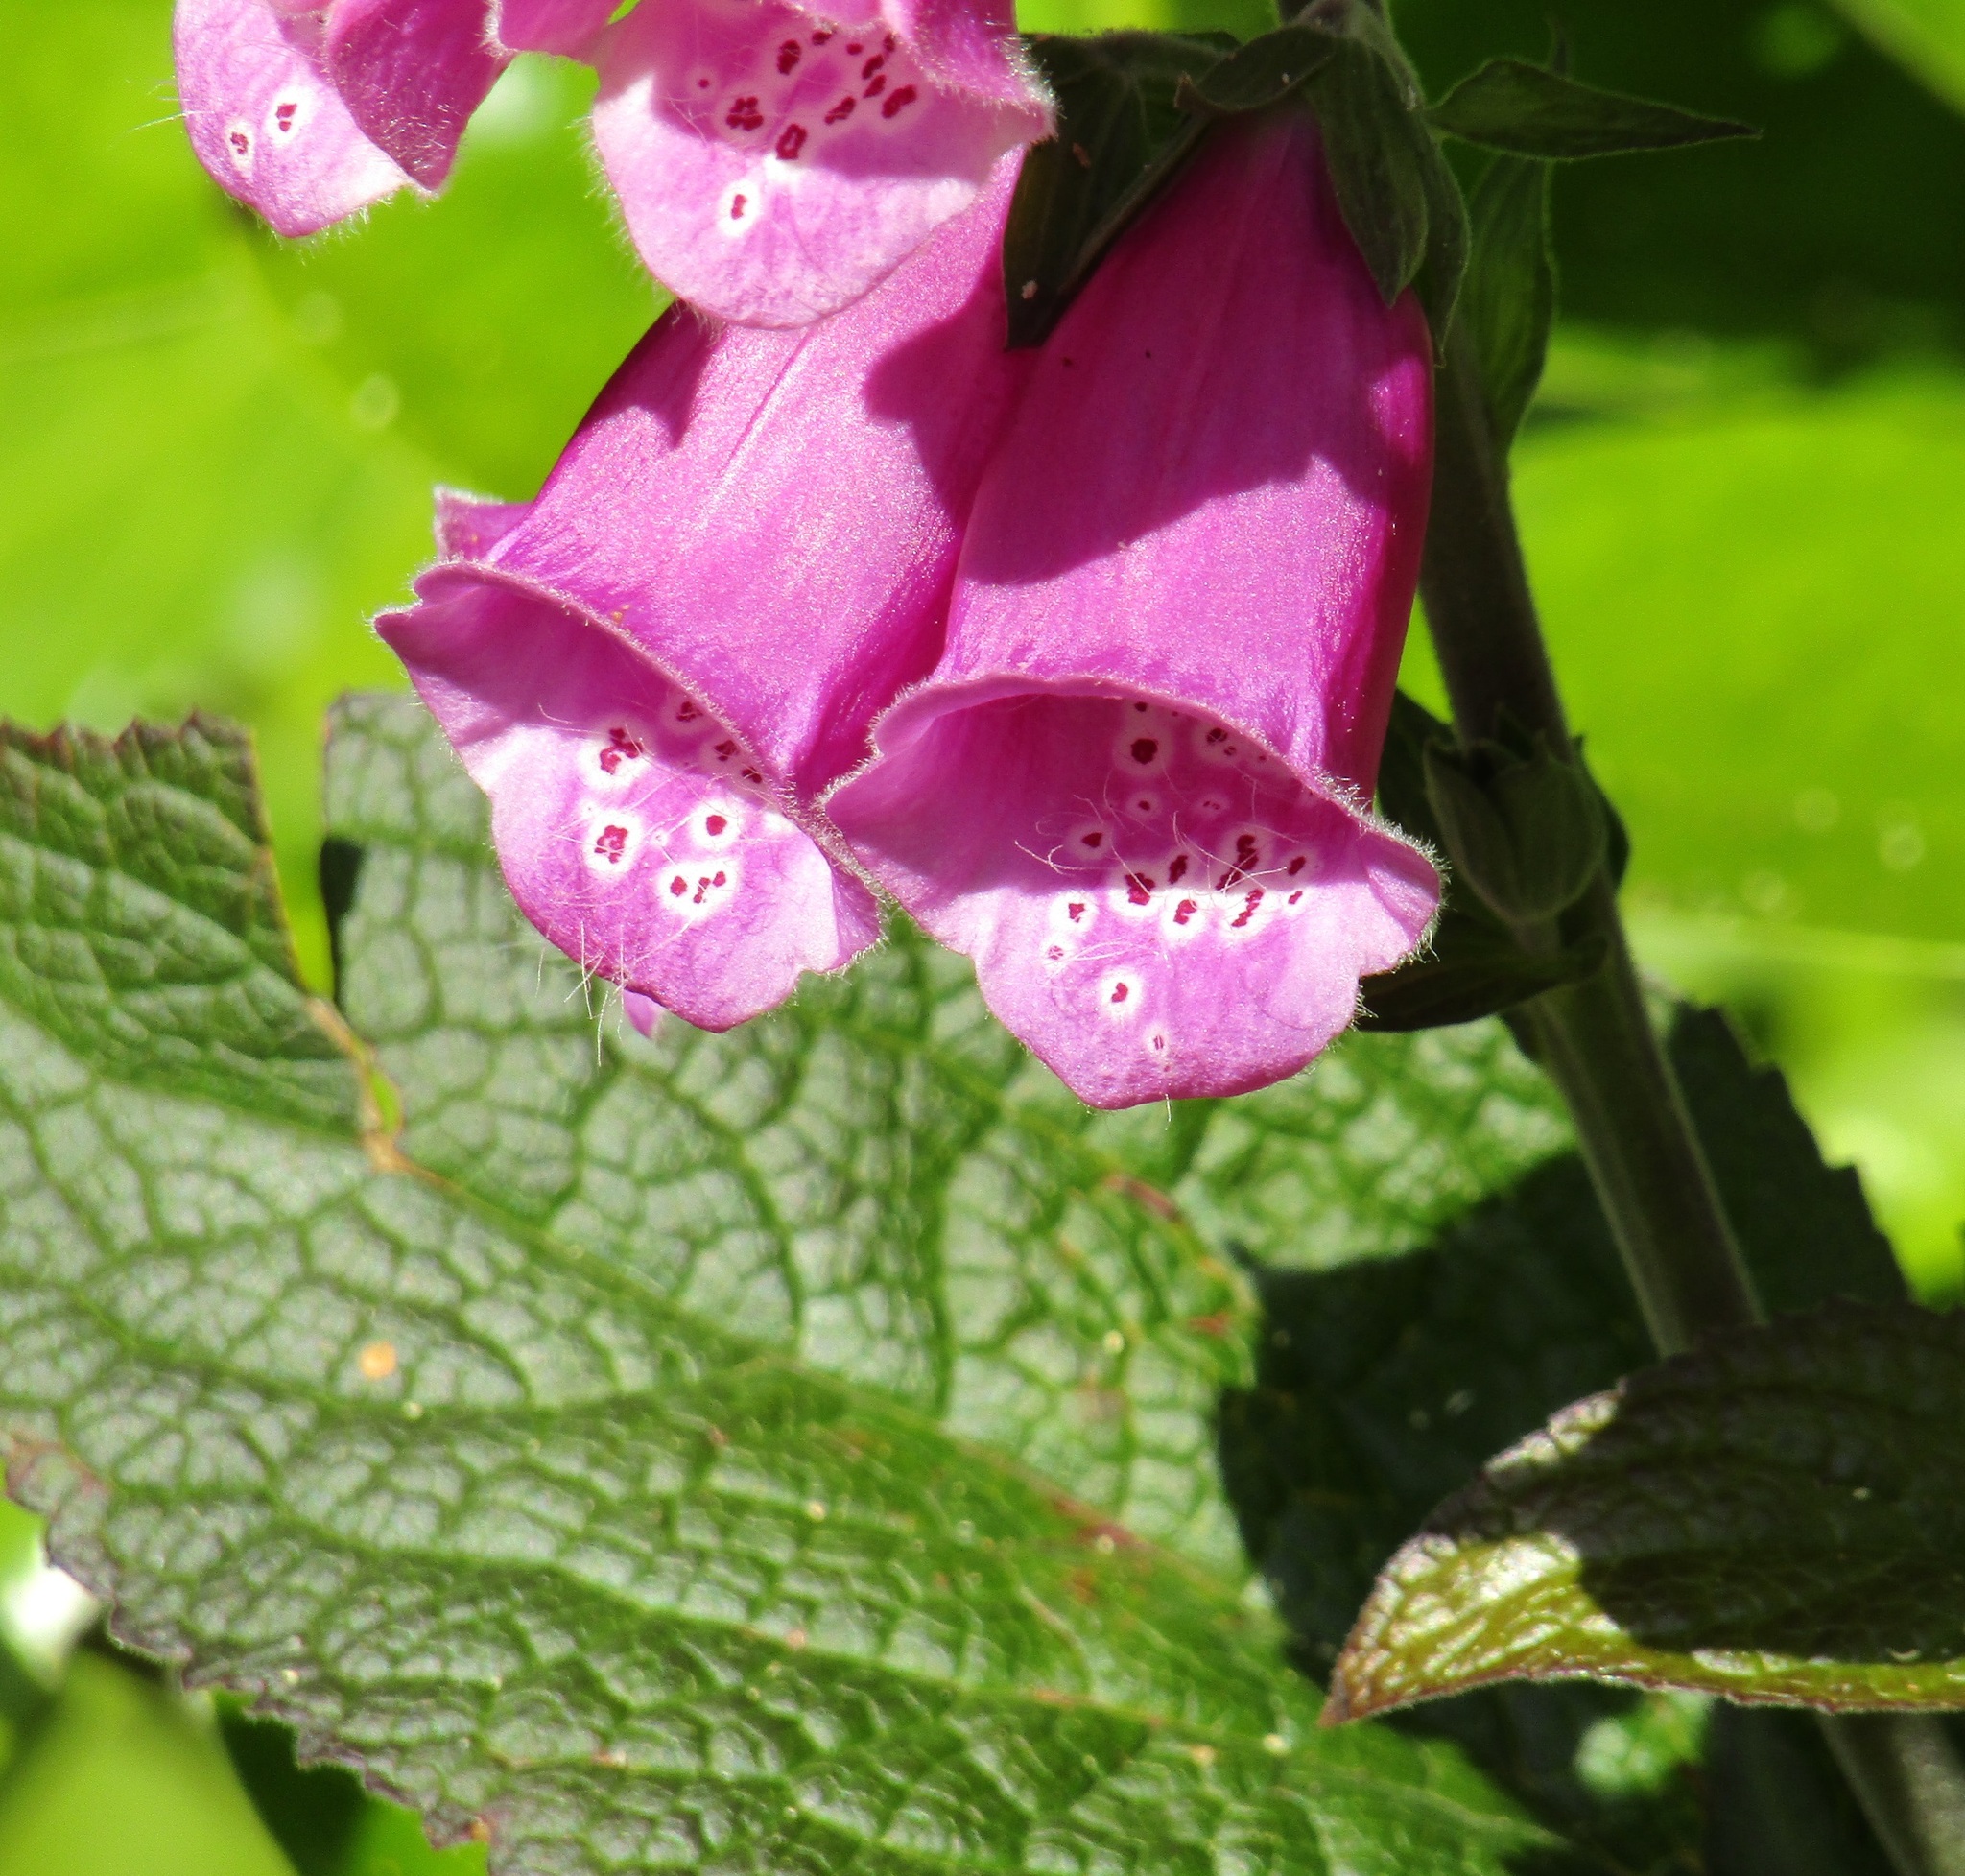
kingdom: Plantae
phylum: Tracheophyta
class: Magnoliopsida
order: Lamiales
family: Plantaginaceae
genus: Digitalis
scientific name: Digitalis purpurea
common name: Foxglove
